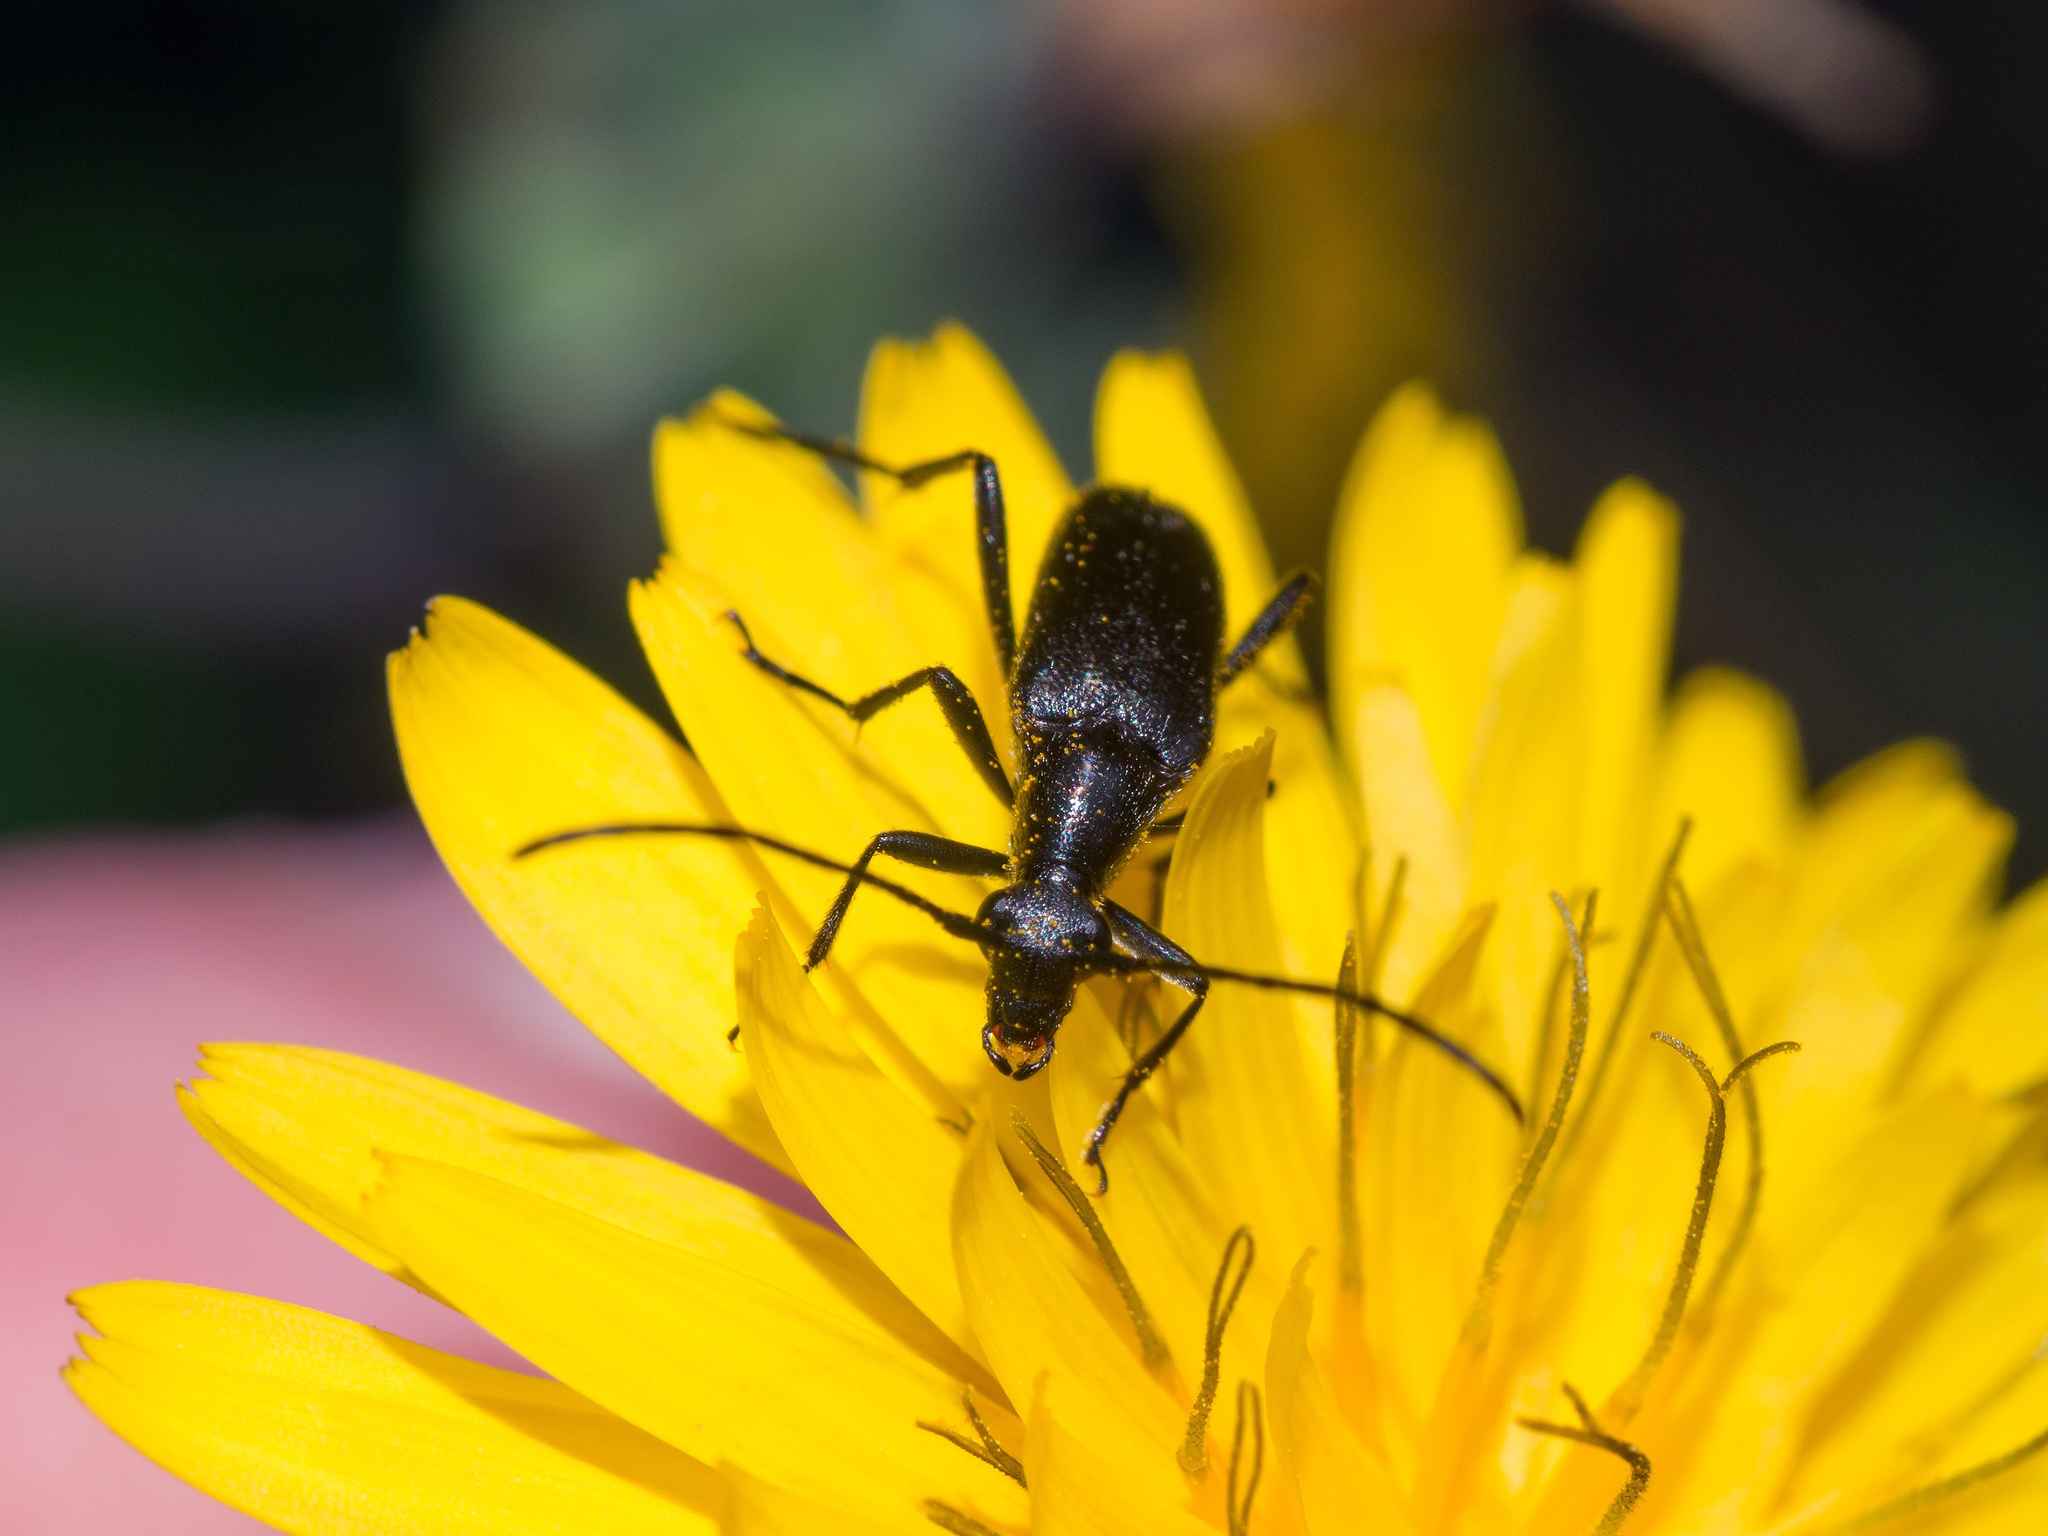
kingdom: Animalia
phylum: Arthropoda
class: Insecta
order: Coleoptera
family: Cerambycidae
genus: Stenurella
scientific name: Stenurella nigra
